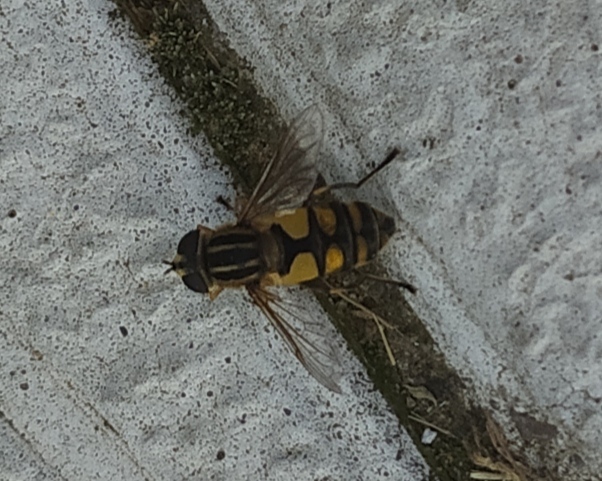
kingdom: Animalia
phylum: Arthropoda
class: Insecta
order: Diptera
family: Syrphidae
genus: Helophilus
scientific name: Helophilus hybridus
